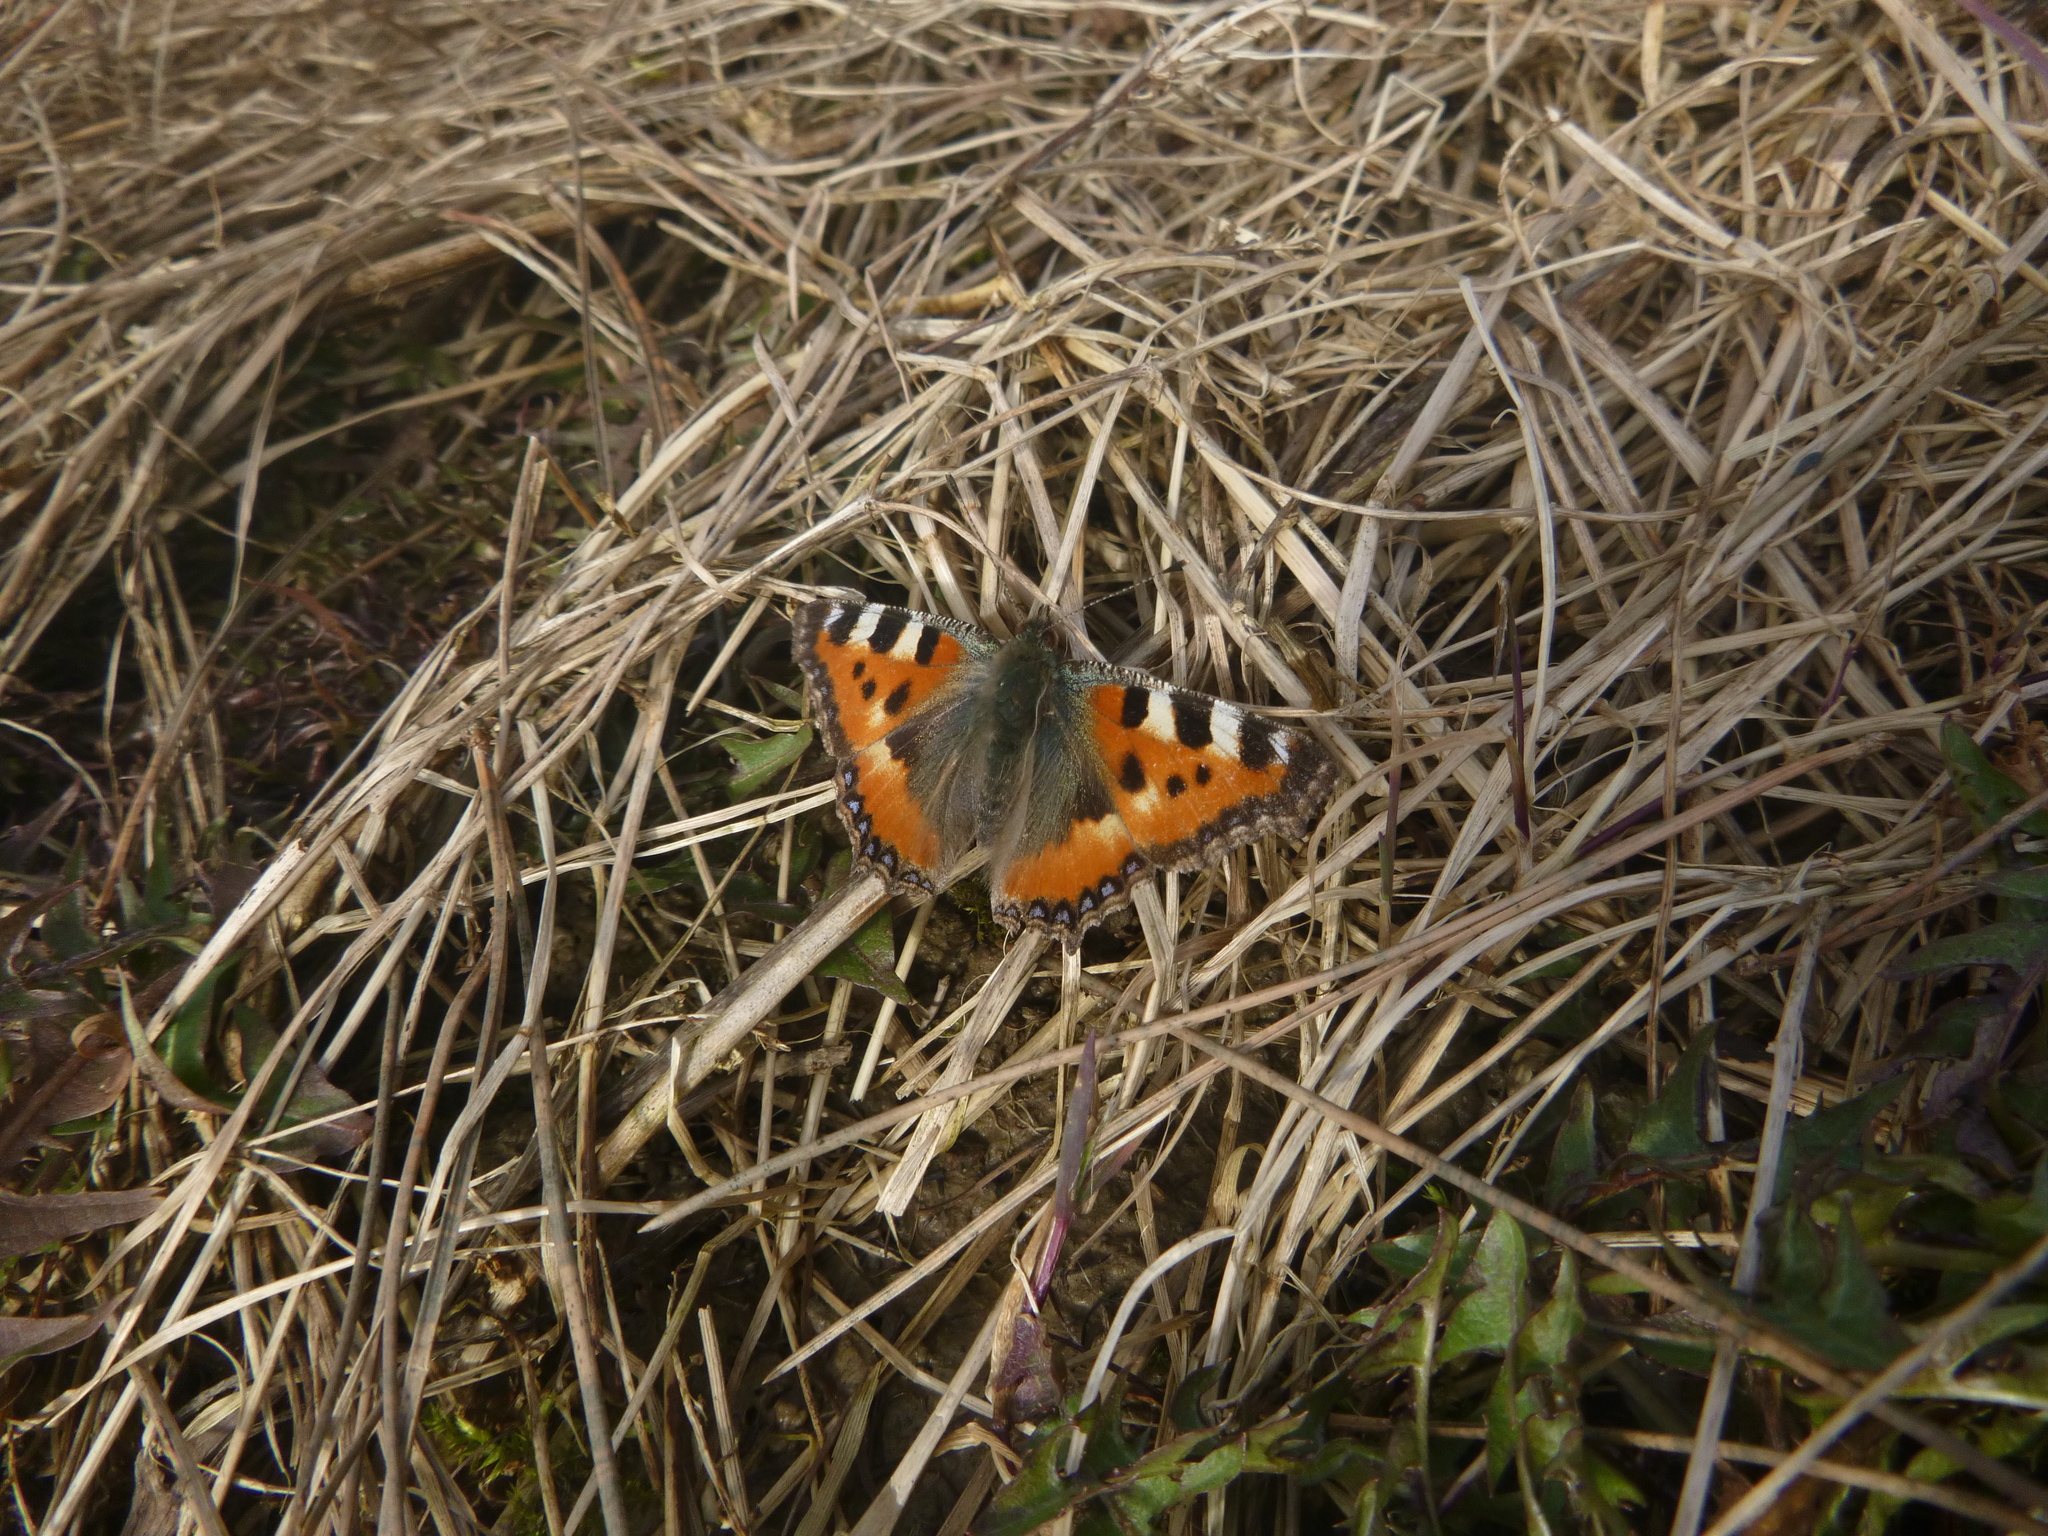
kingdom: Animalia
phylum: Arthropoda
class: Insecta
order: Lepidoptera
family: Nymphalidae
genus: Aglais
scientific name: Aglais urticae
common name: Small tortoiseshell
